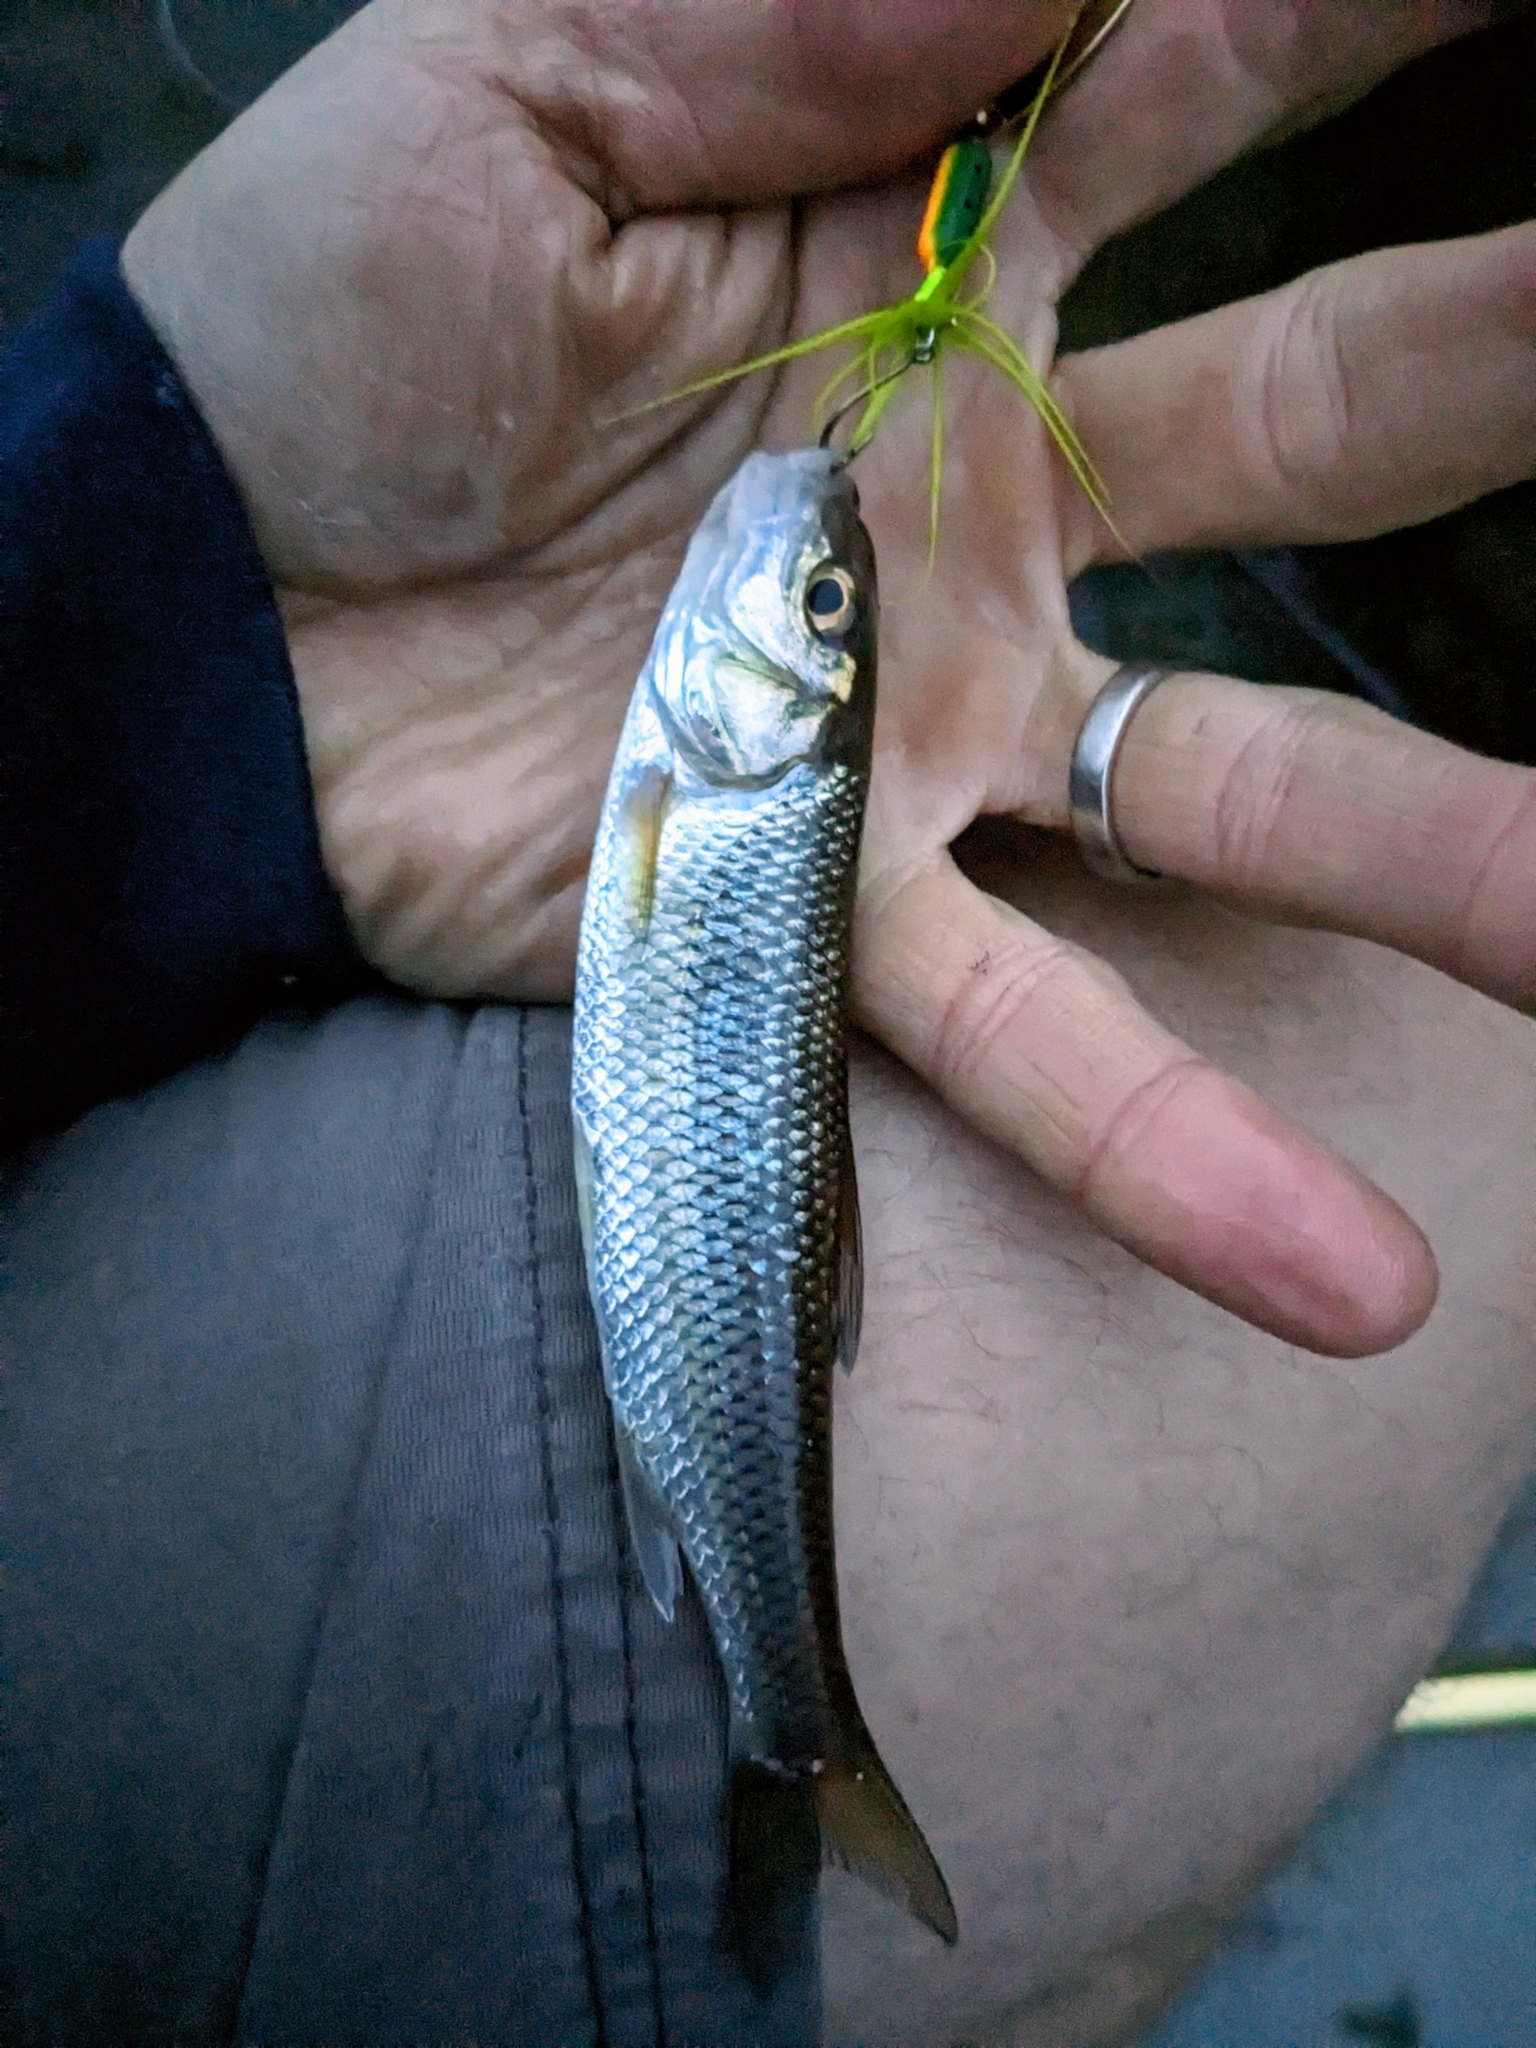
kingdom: Animalia
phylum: Chordata
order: Cypriniformes
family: Cyprinidae
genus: Semotilus
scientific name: Semotilus corporalis
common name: Fallfish
